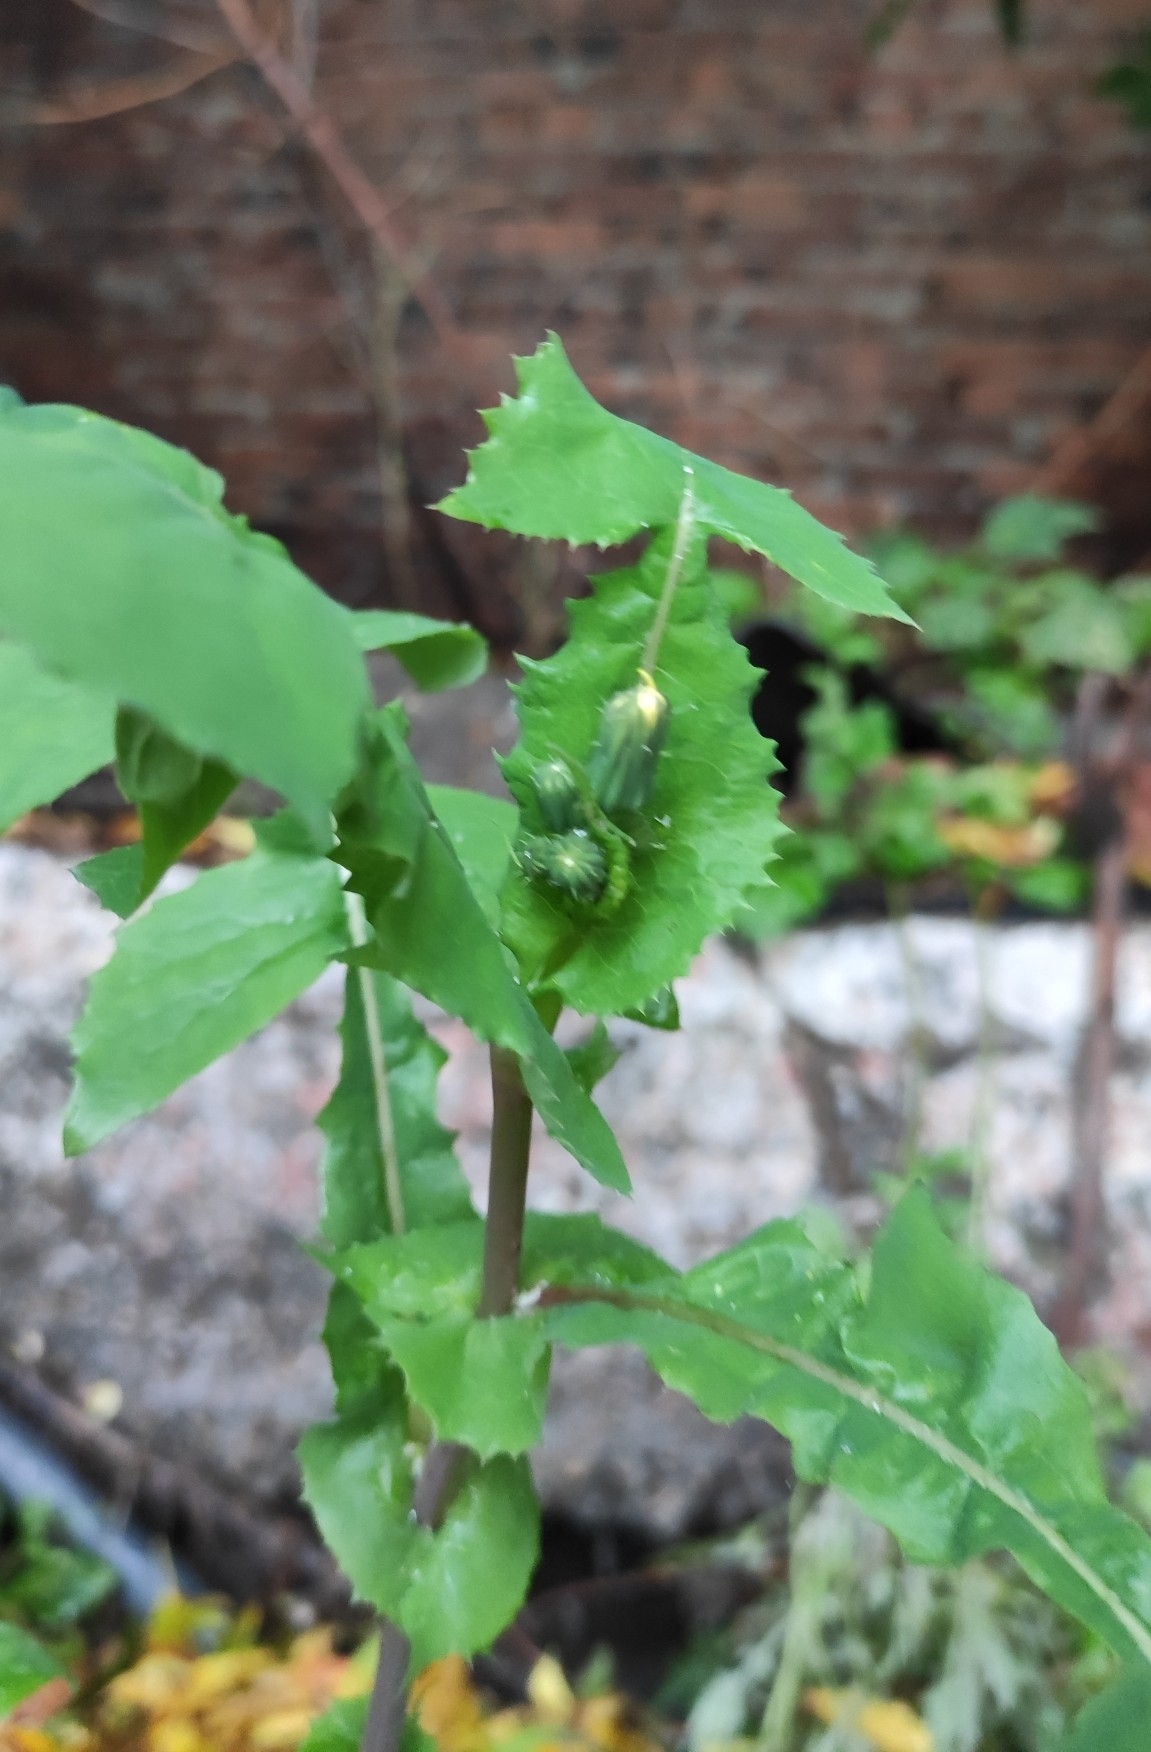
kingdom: Plantae
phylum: Tracheophyta
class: Magnoliopsida
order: Asterales
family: Asteraceae
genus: Sonchus
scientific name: Sonchus oleraceus
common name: Common sowthistle
